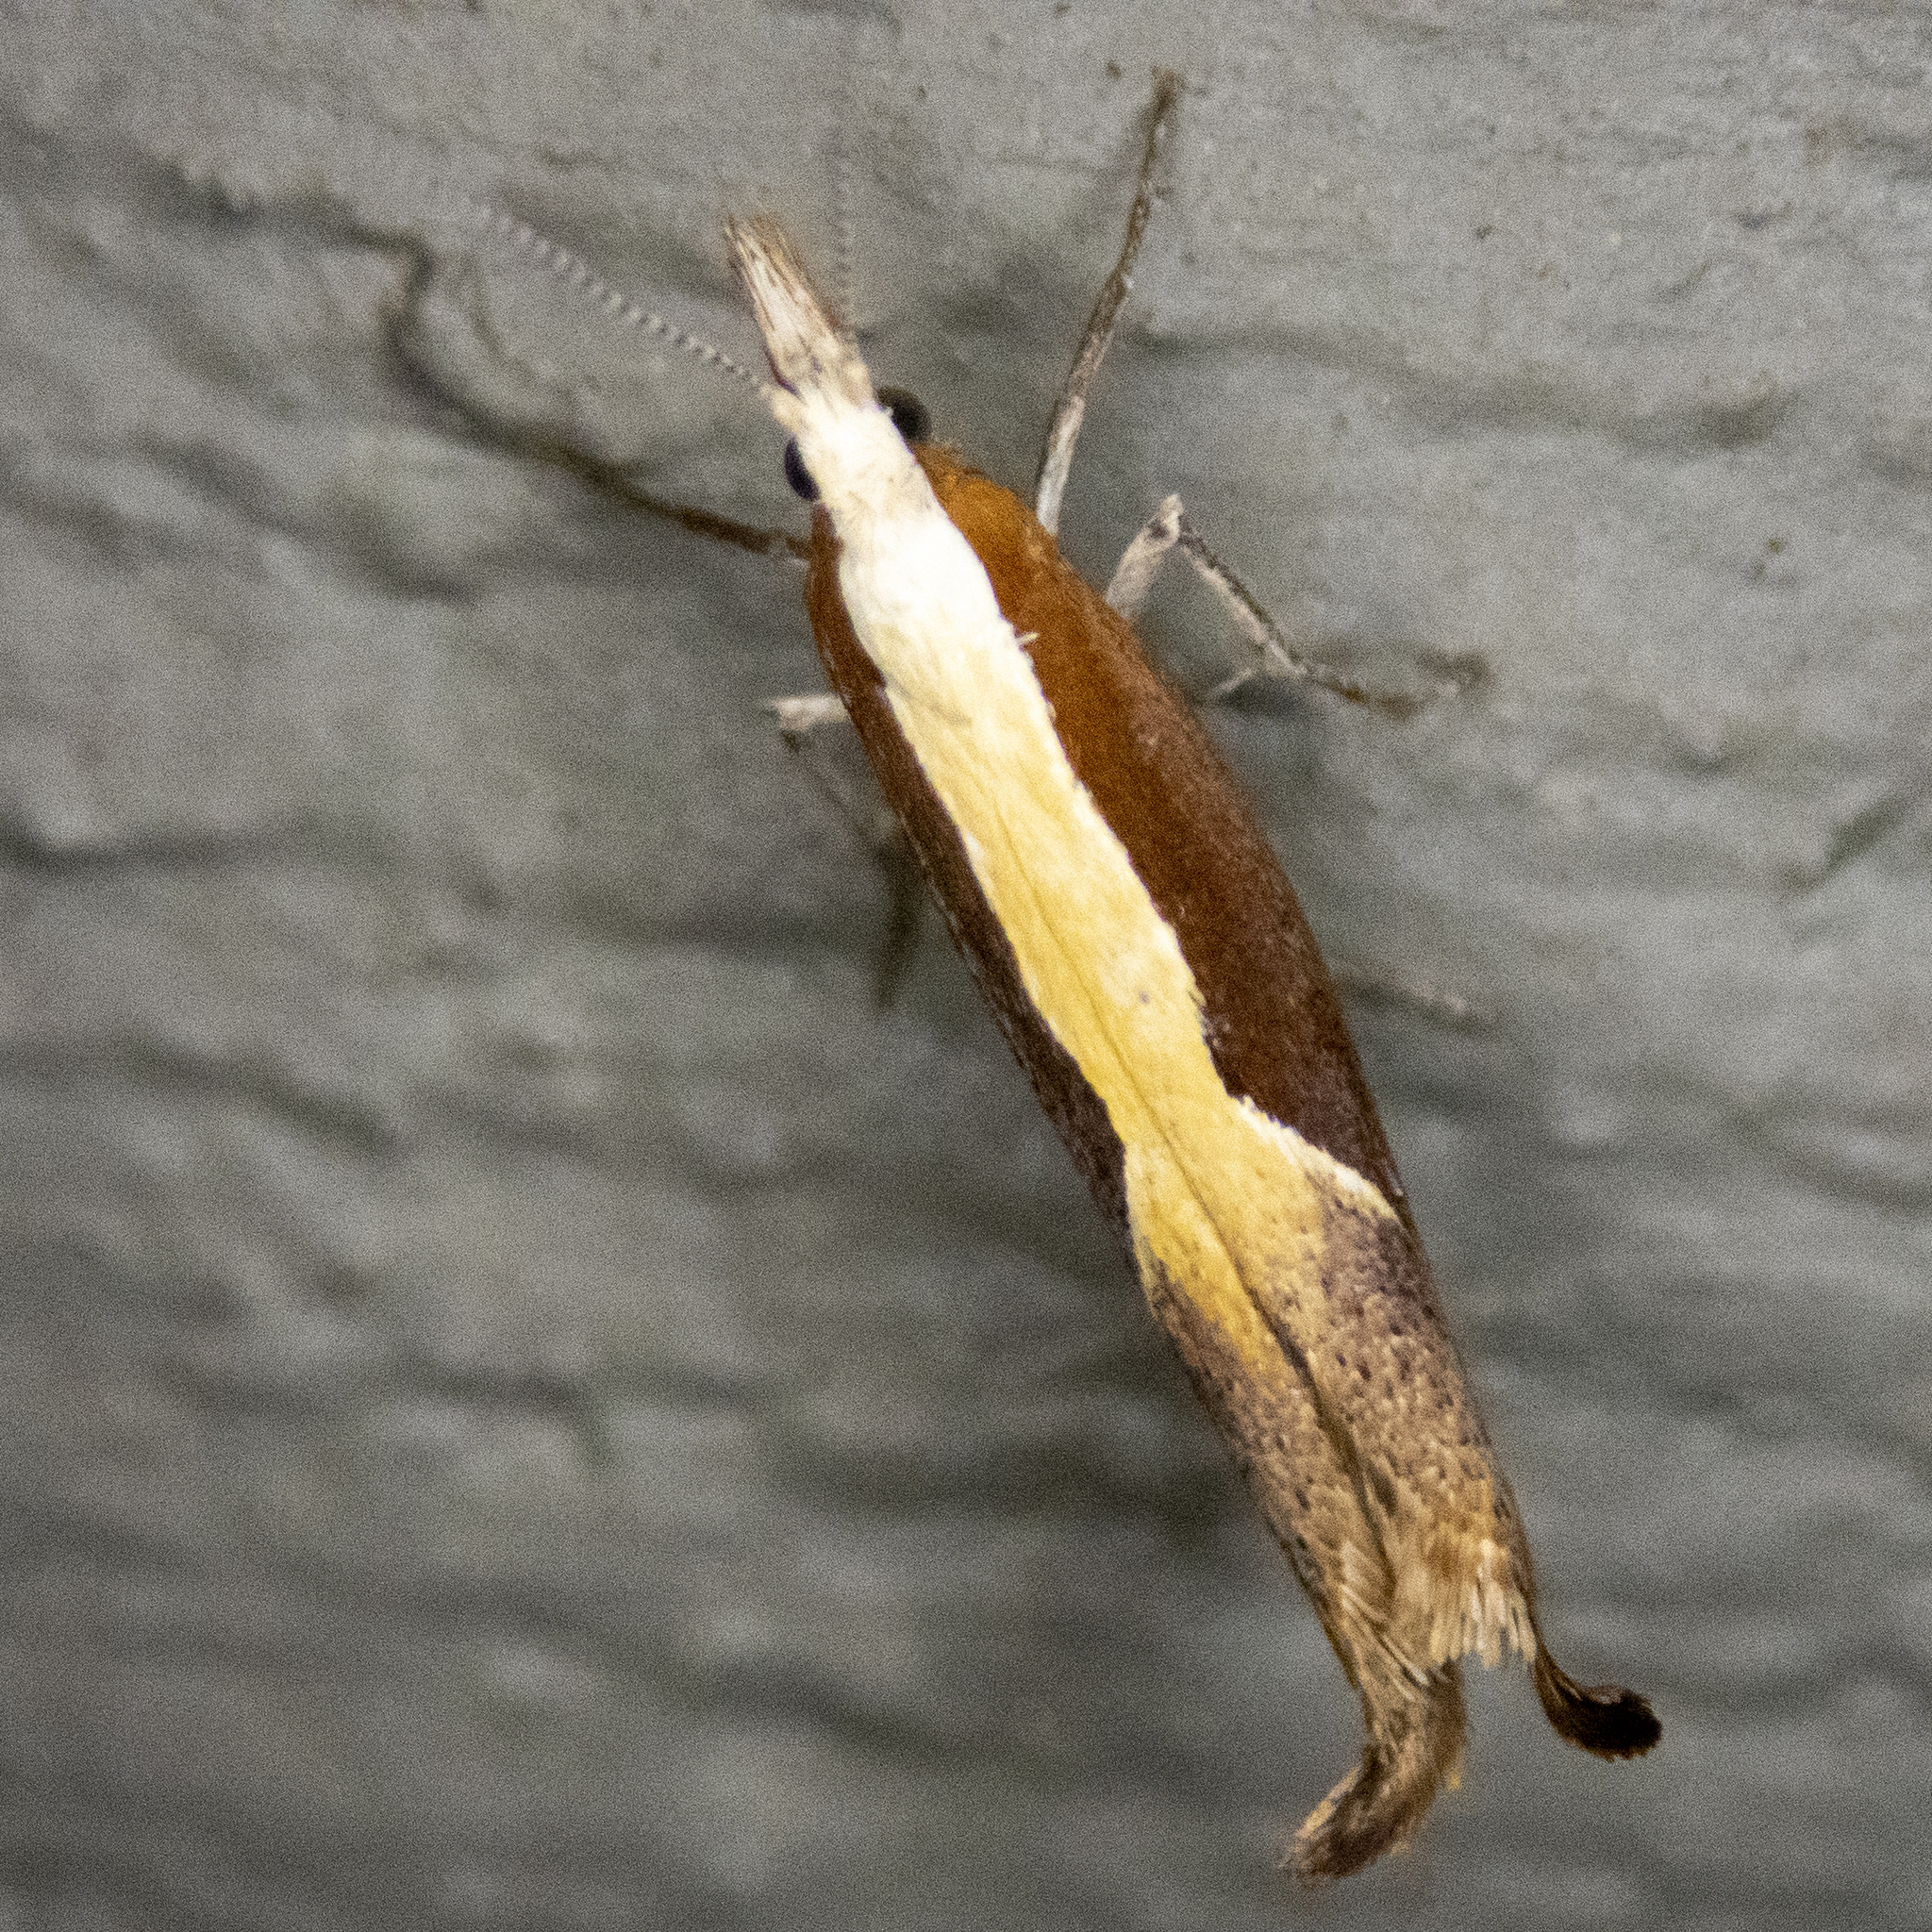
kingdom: Animalia
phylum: Arthropoda
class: Insecta
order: Lepidoptera
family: Ypsolophidae
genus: Ypsolopha
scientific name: Ypsolopha dentella
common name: Honeysuckle moth
